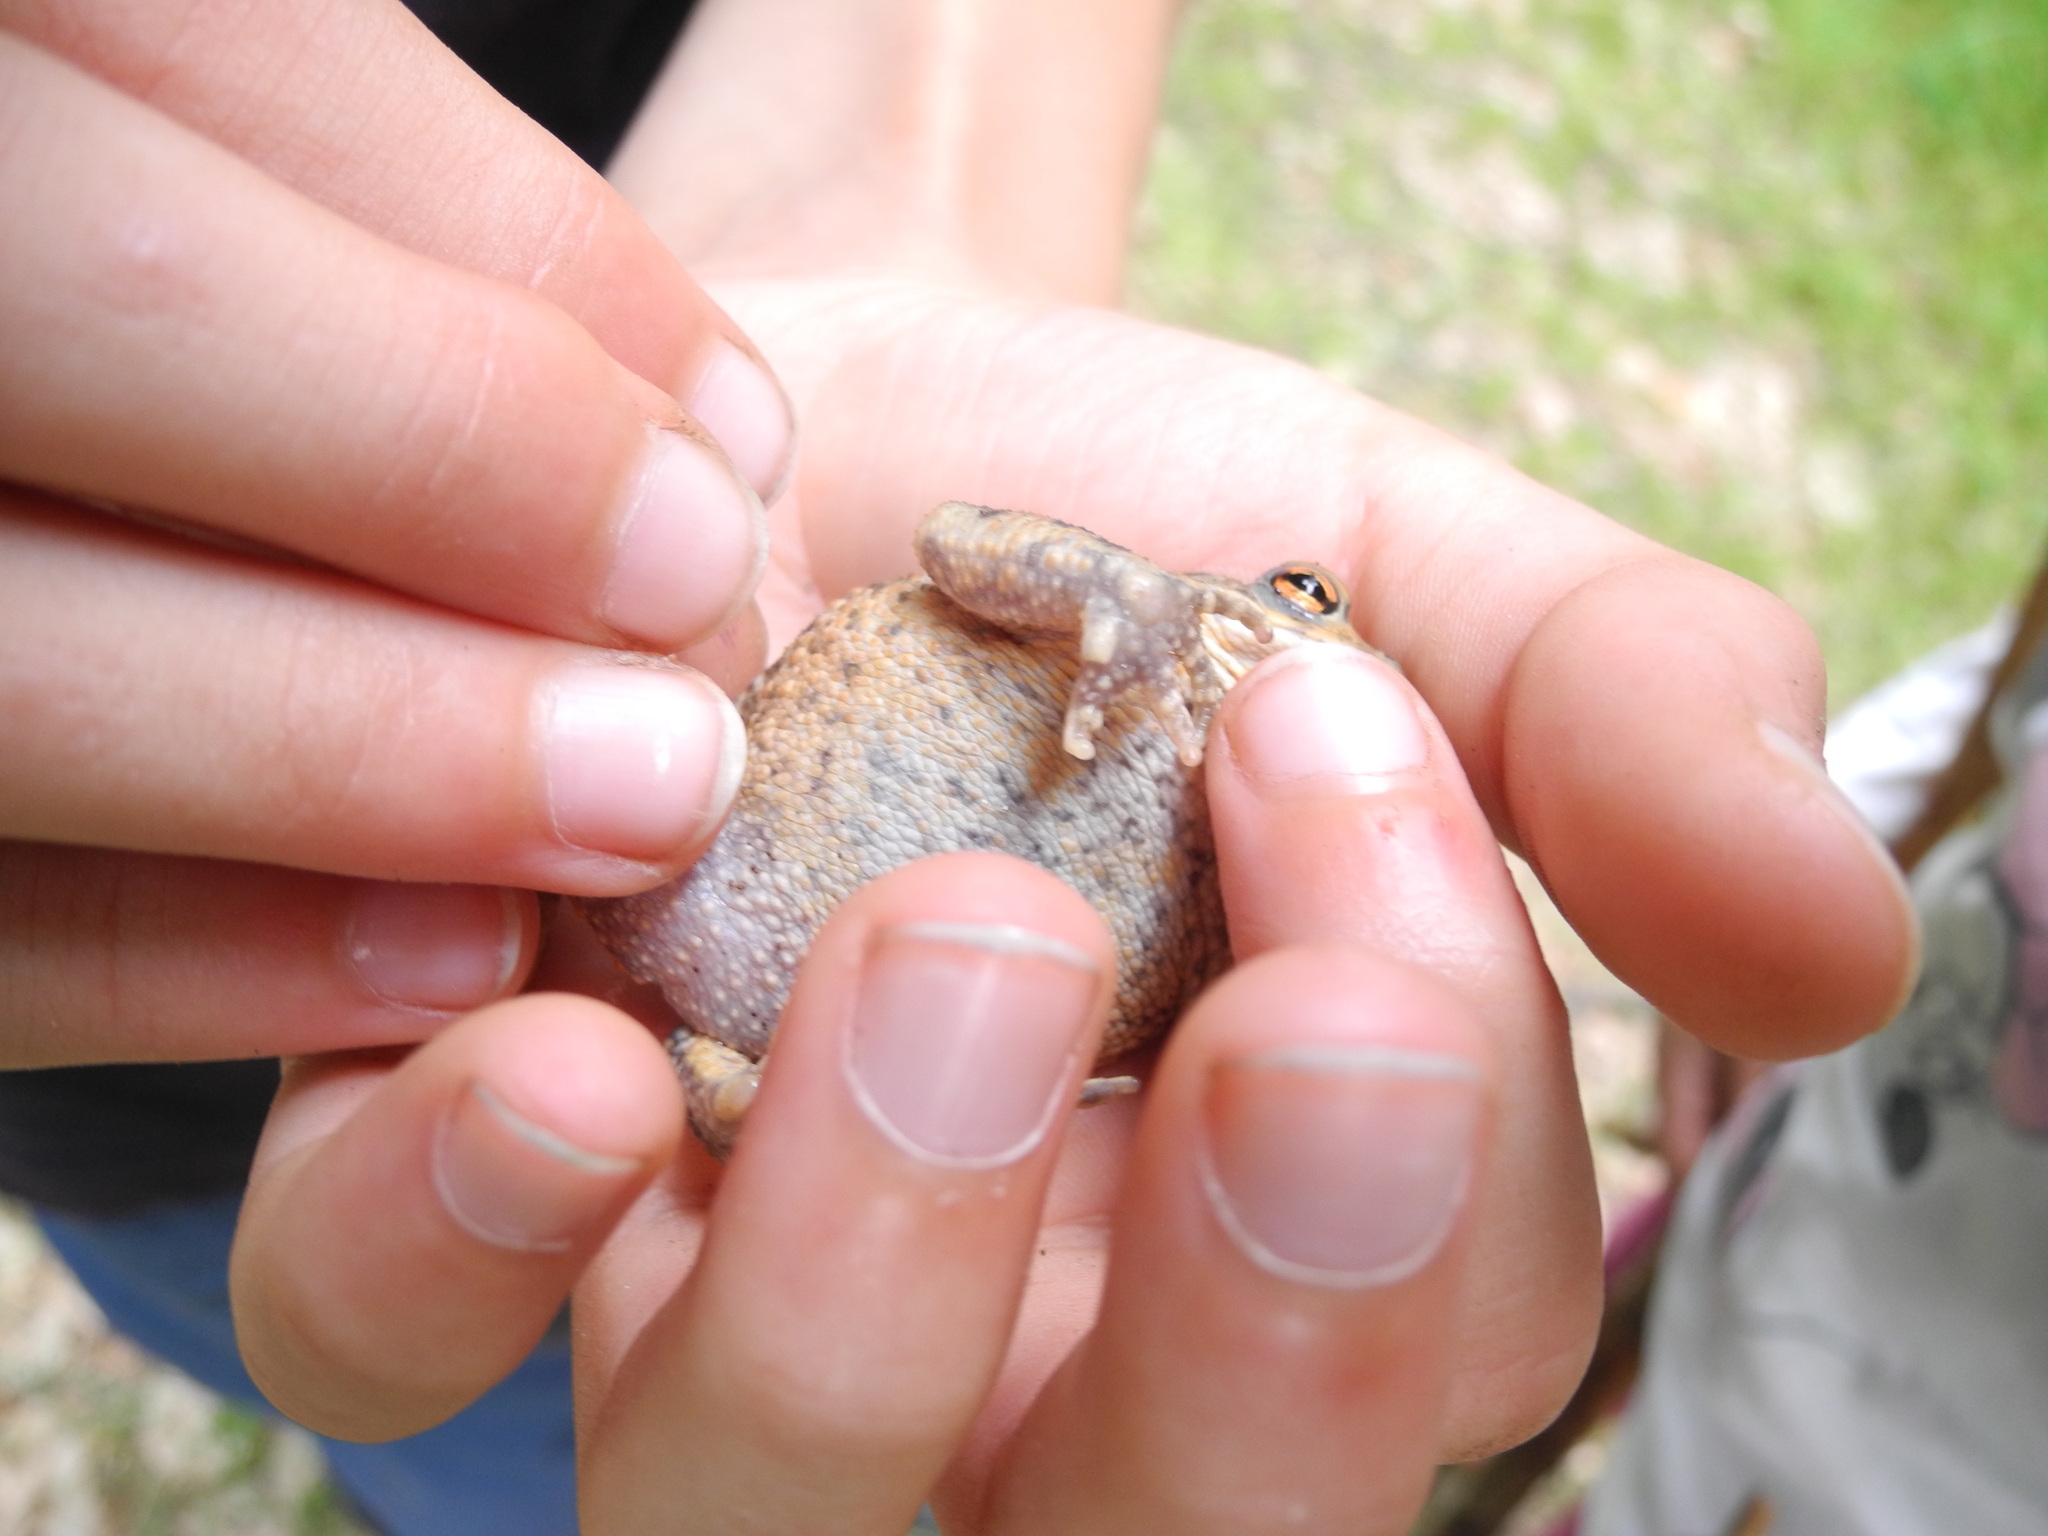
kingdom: Animalia
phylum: Chordata
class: Amphibia
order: Anura
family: Bufonidae
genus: Bufo
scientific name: Bufo bufo
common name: Common toad
